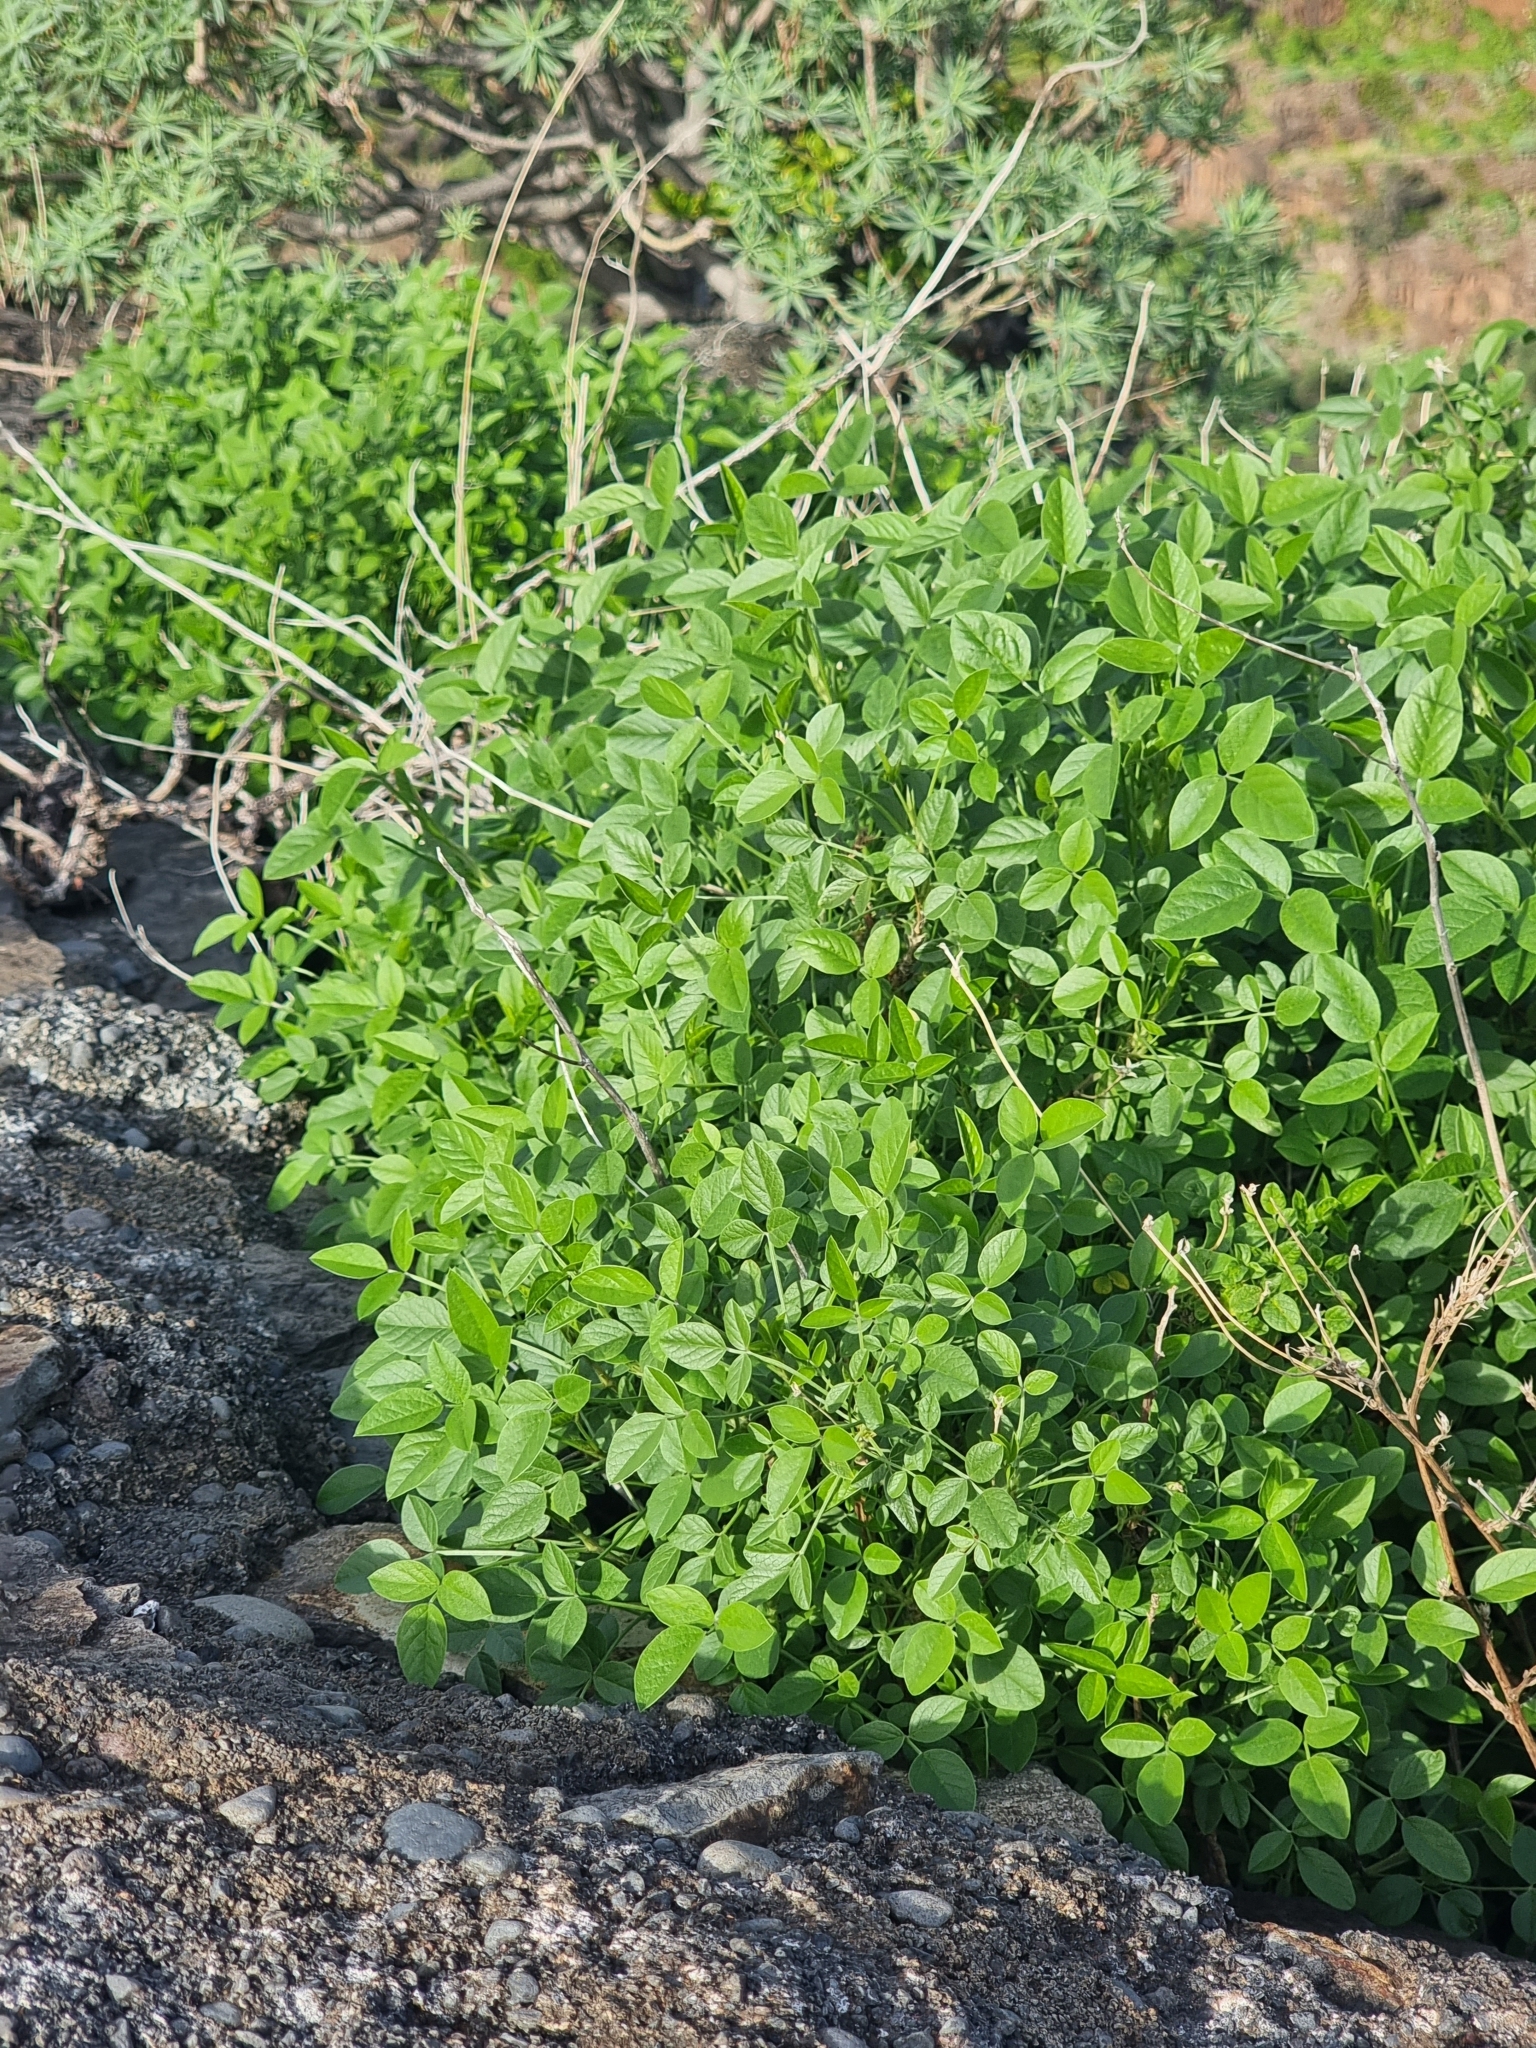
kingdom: Plantae
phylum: Tracheophyta
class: Magnoliopsida
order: Fabales
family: Fabaceae
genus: Bituminaria
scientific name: Bituminaria bituminosa
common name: Arabian pea
